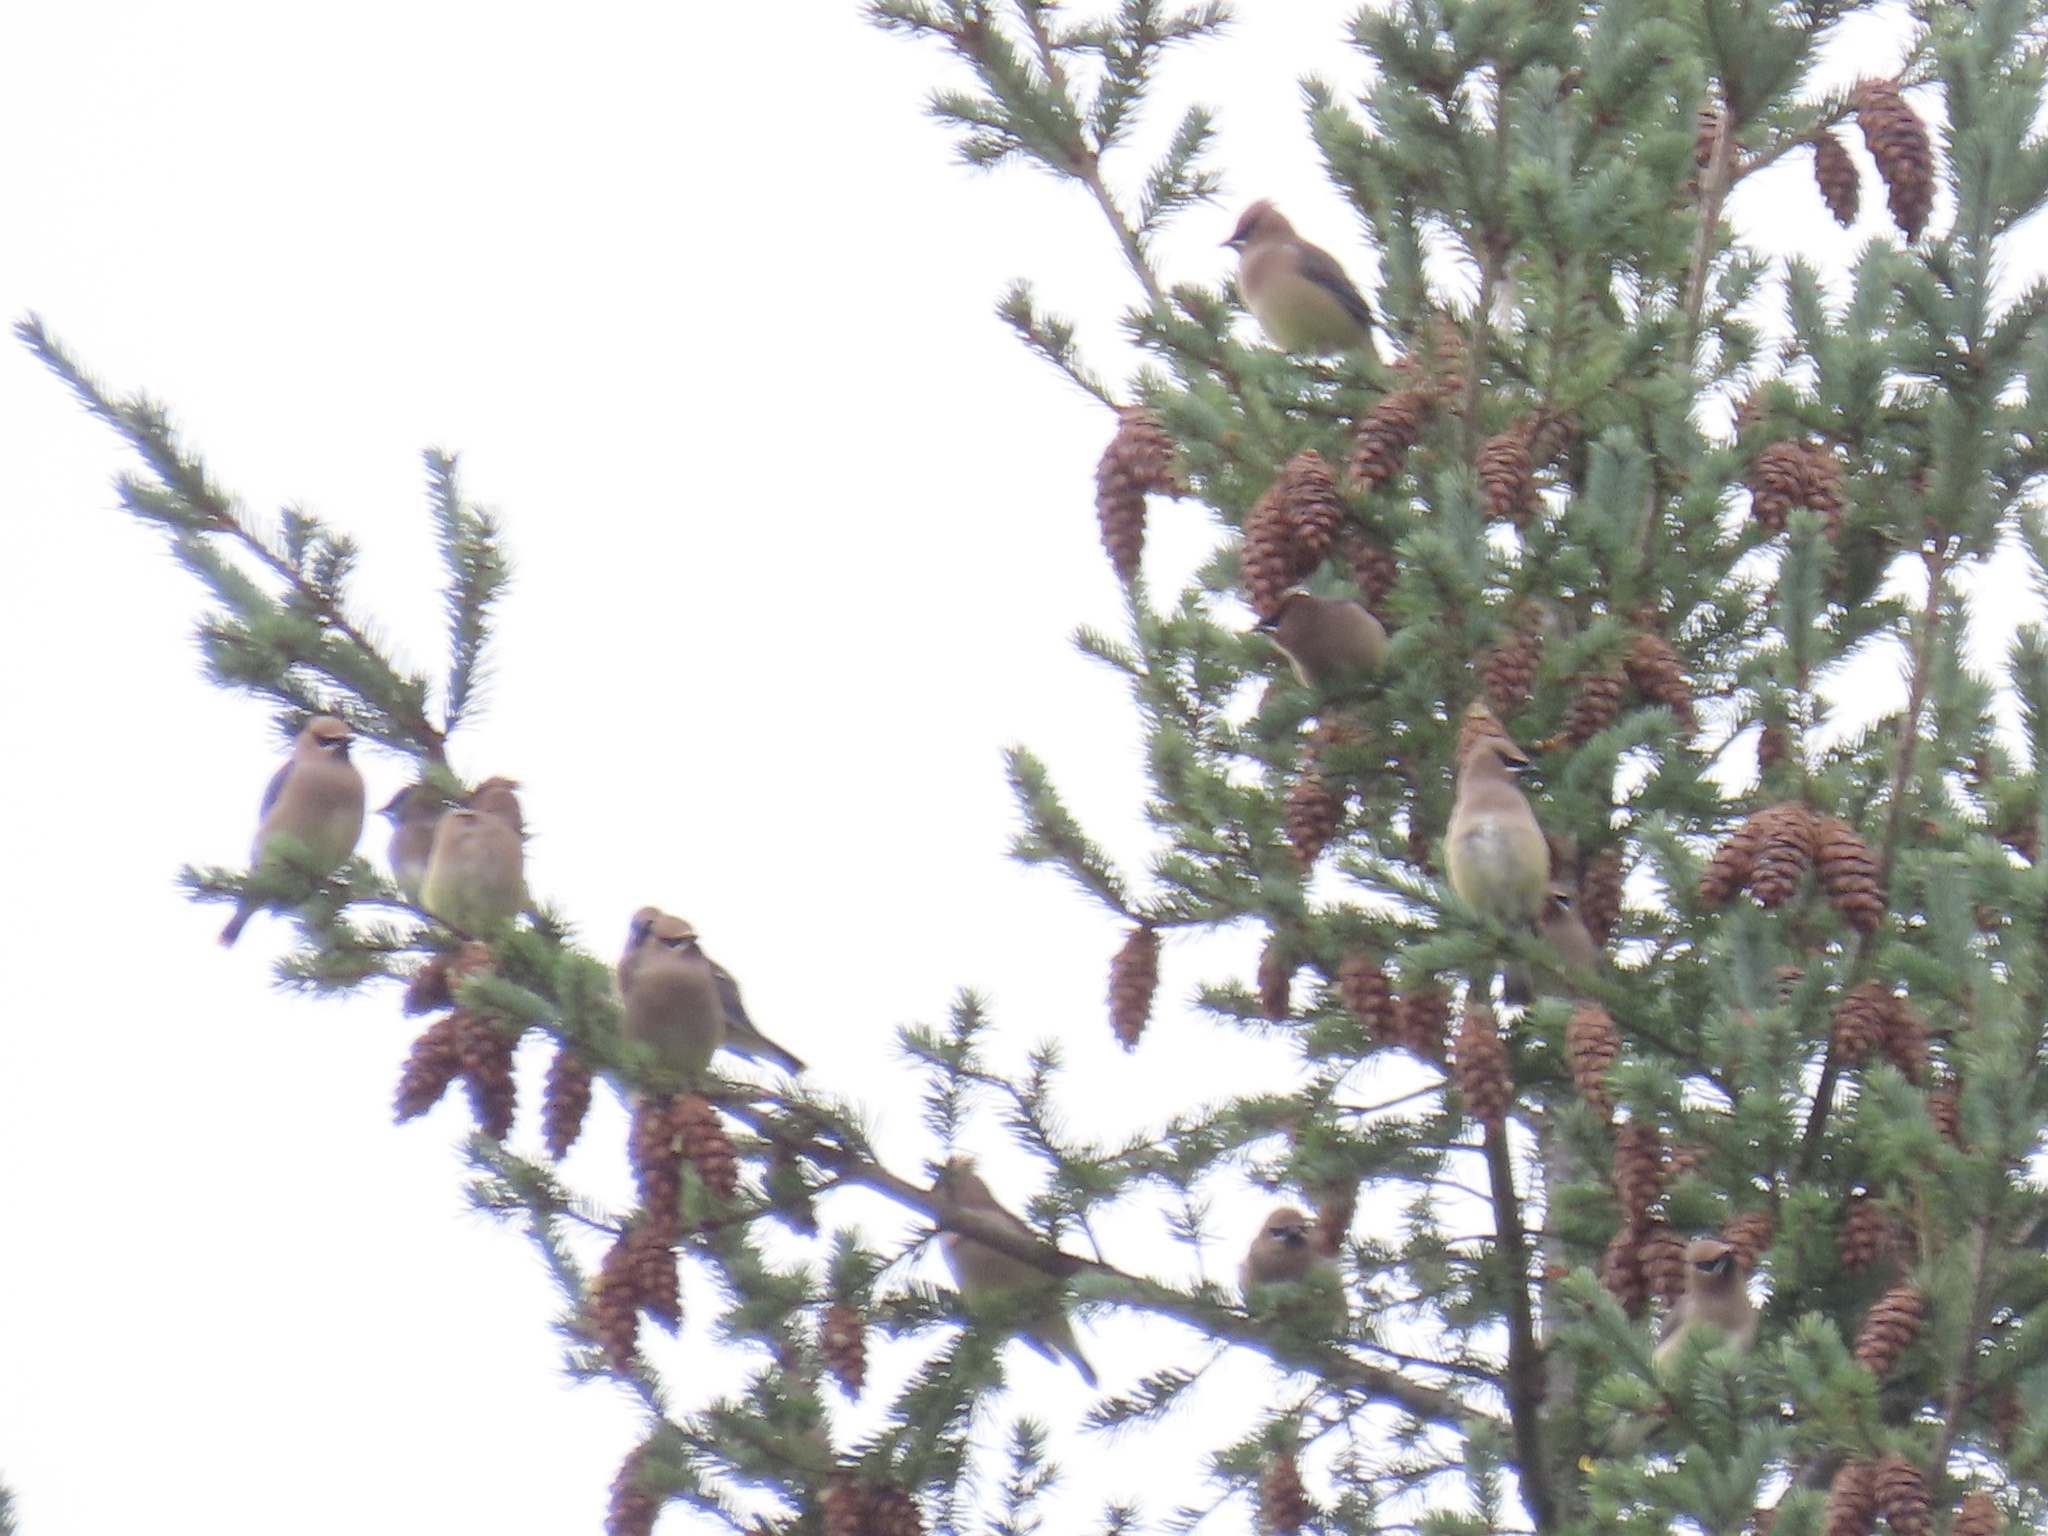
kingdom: Animalia
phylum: Chordata
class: Aves
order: Passeriformes
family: Bombycillidae
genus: Bombycilla
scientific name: Bombycilla cedrorum
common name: Cedar waxwing
